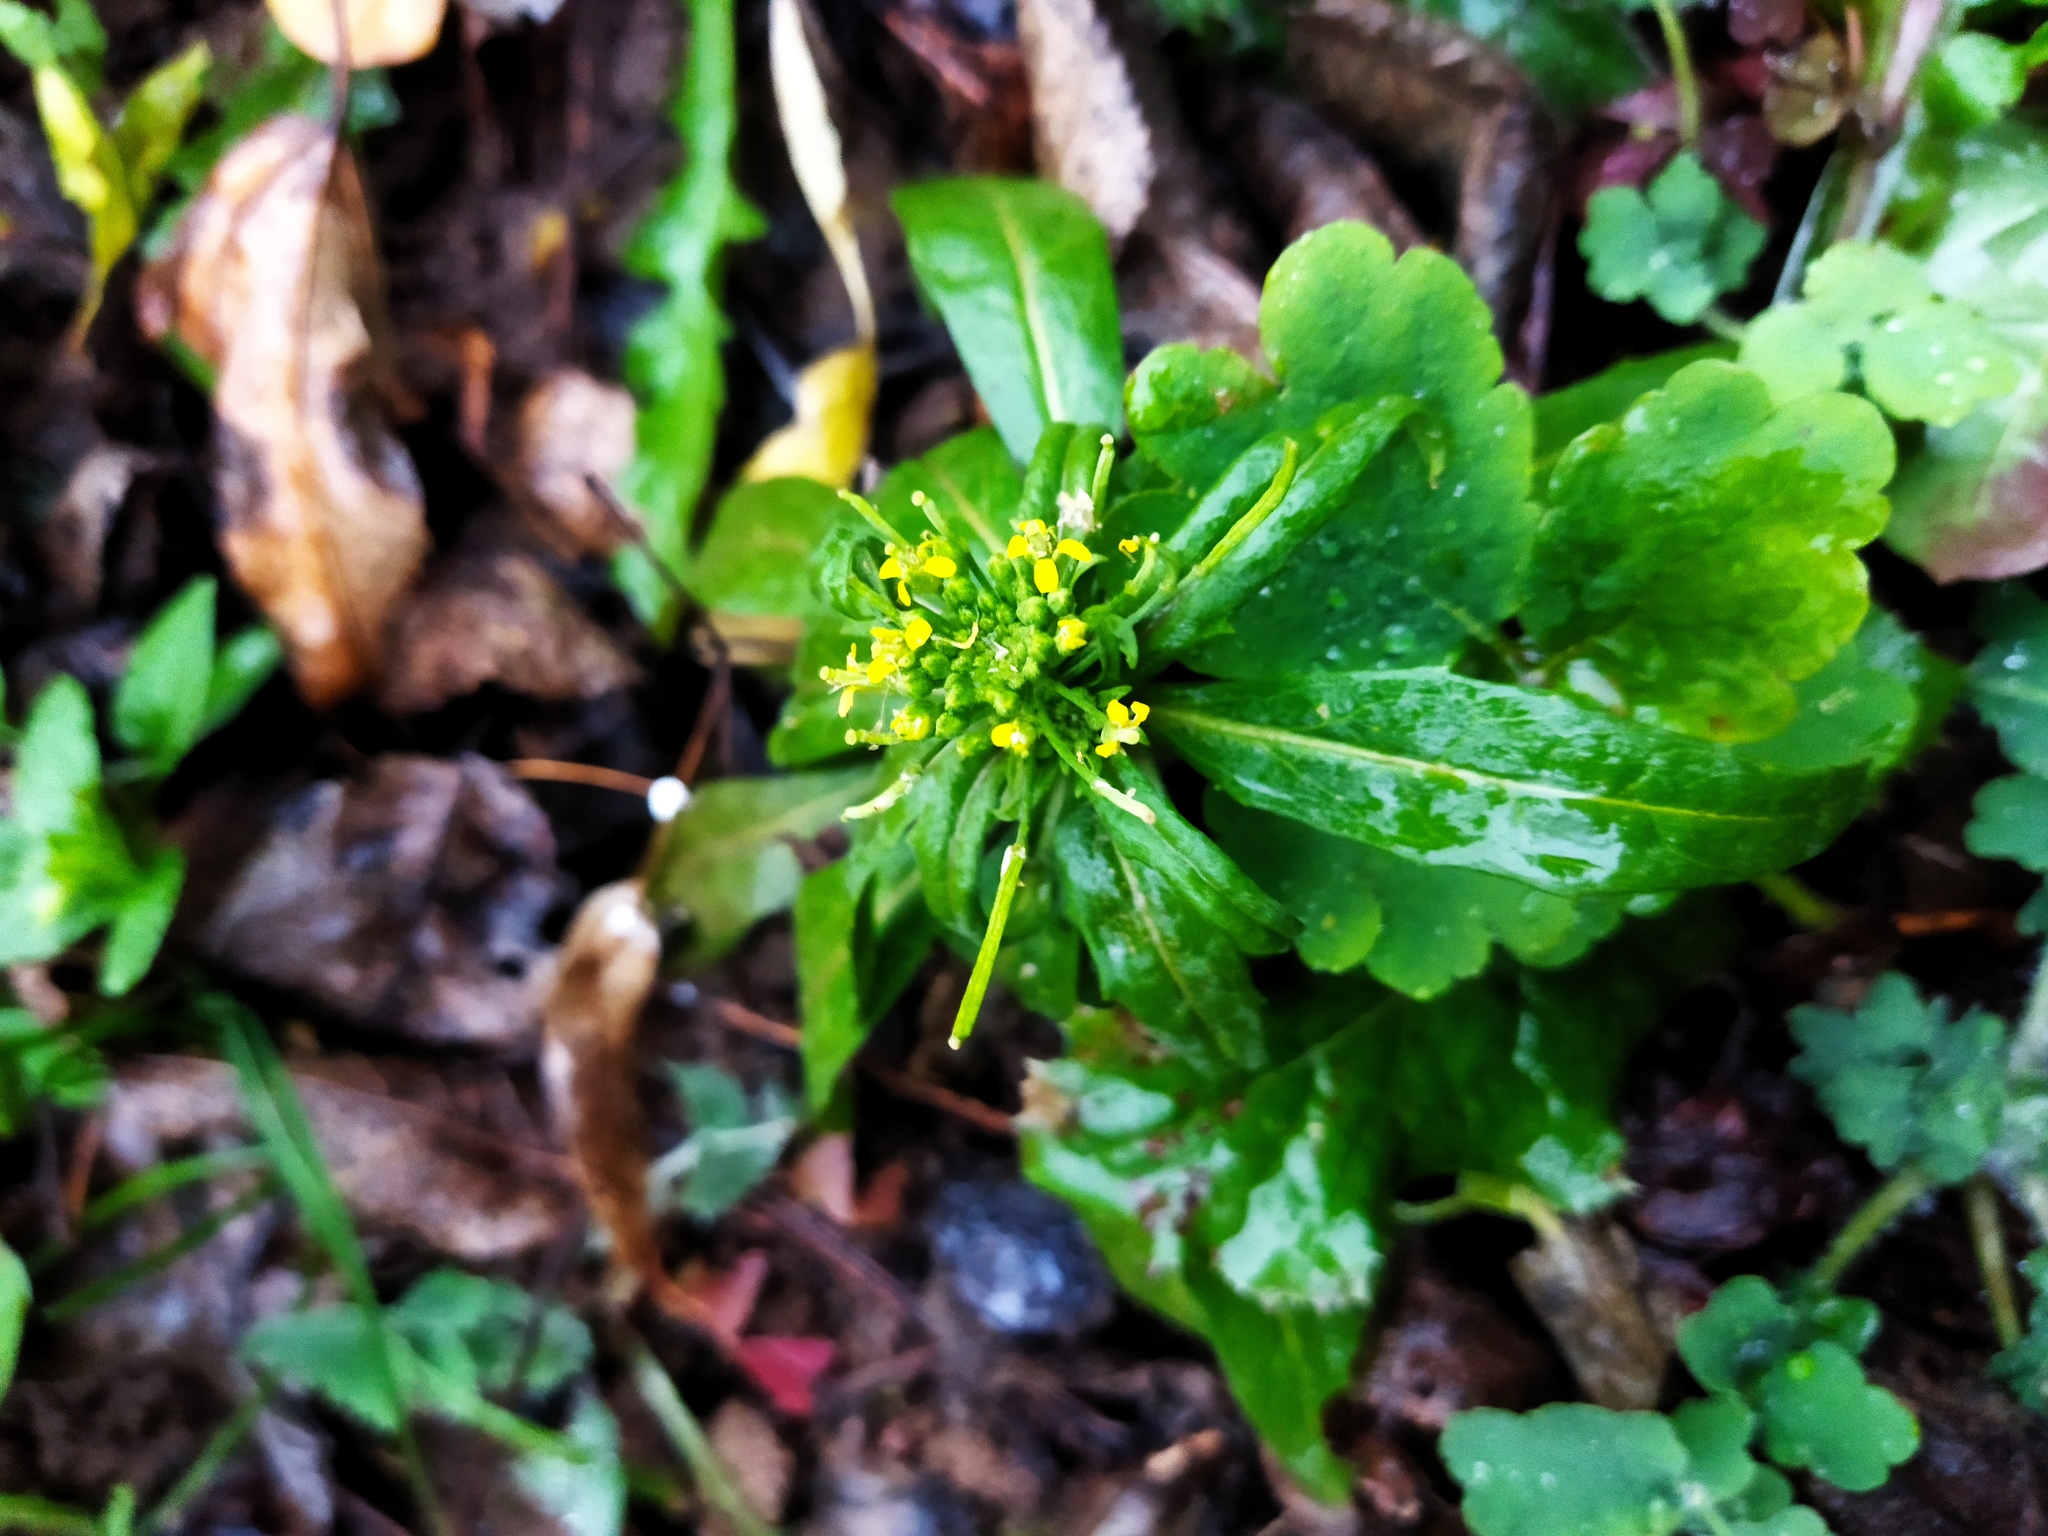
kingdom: Plantae
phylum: Tracheophyta
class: Magnoliopsida
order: Brassicales
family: Brassicaceae
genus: Erysimum
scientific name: Erysimum cheiranthoides
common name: Treacle mustard
